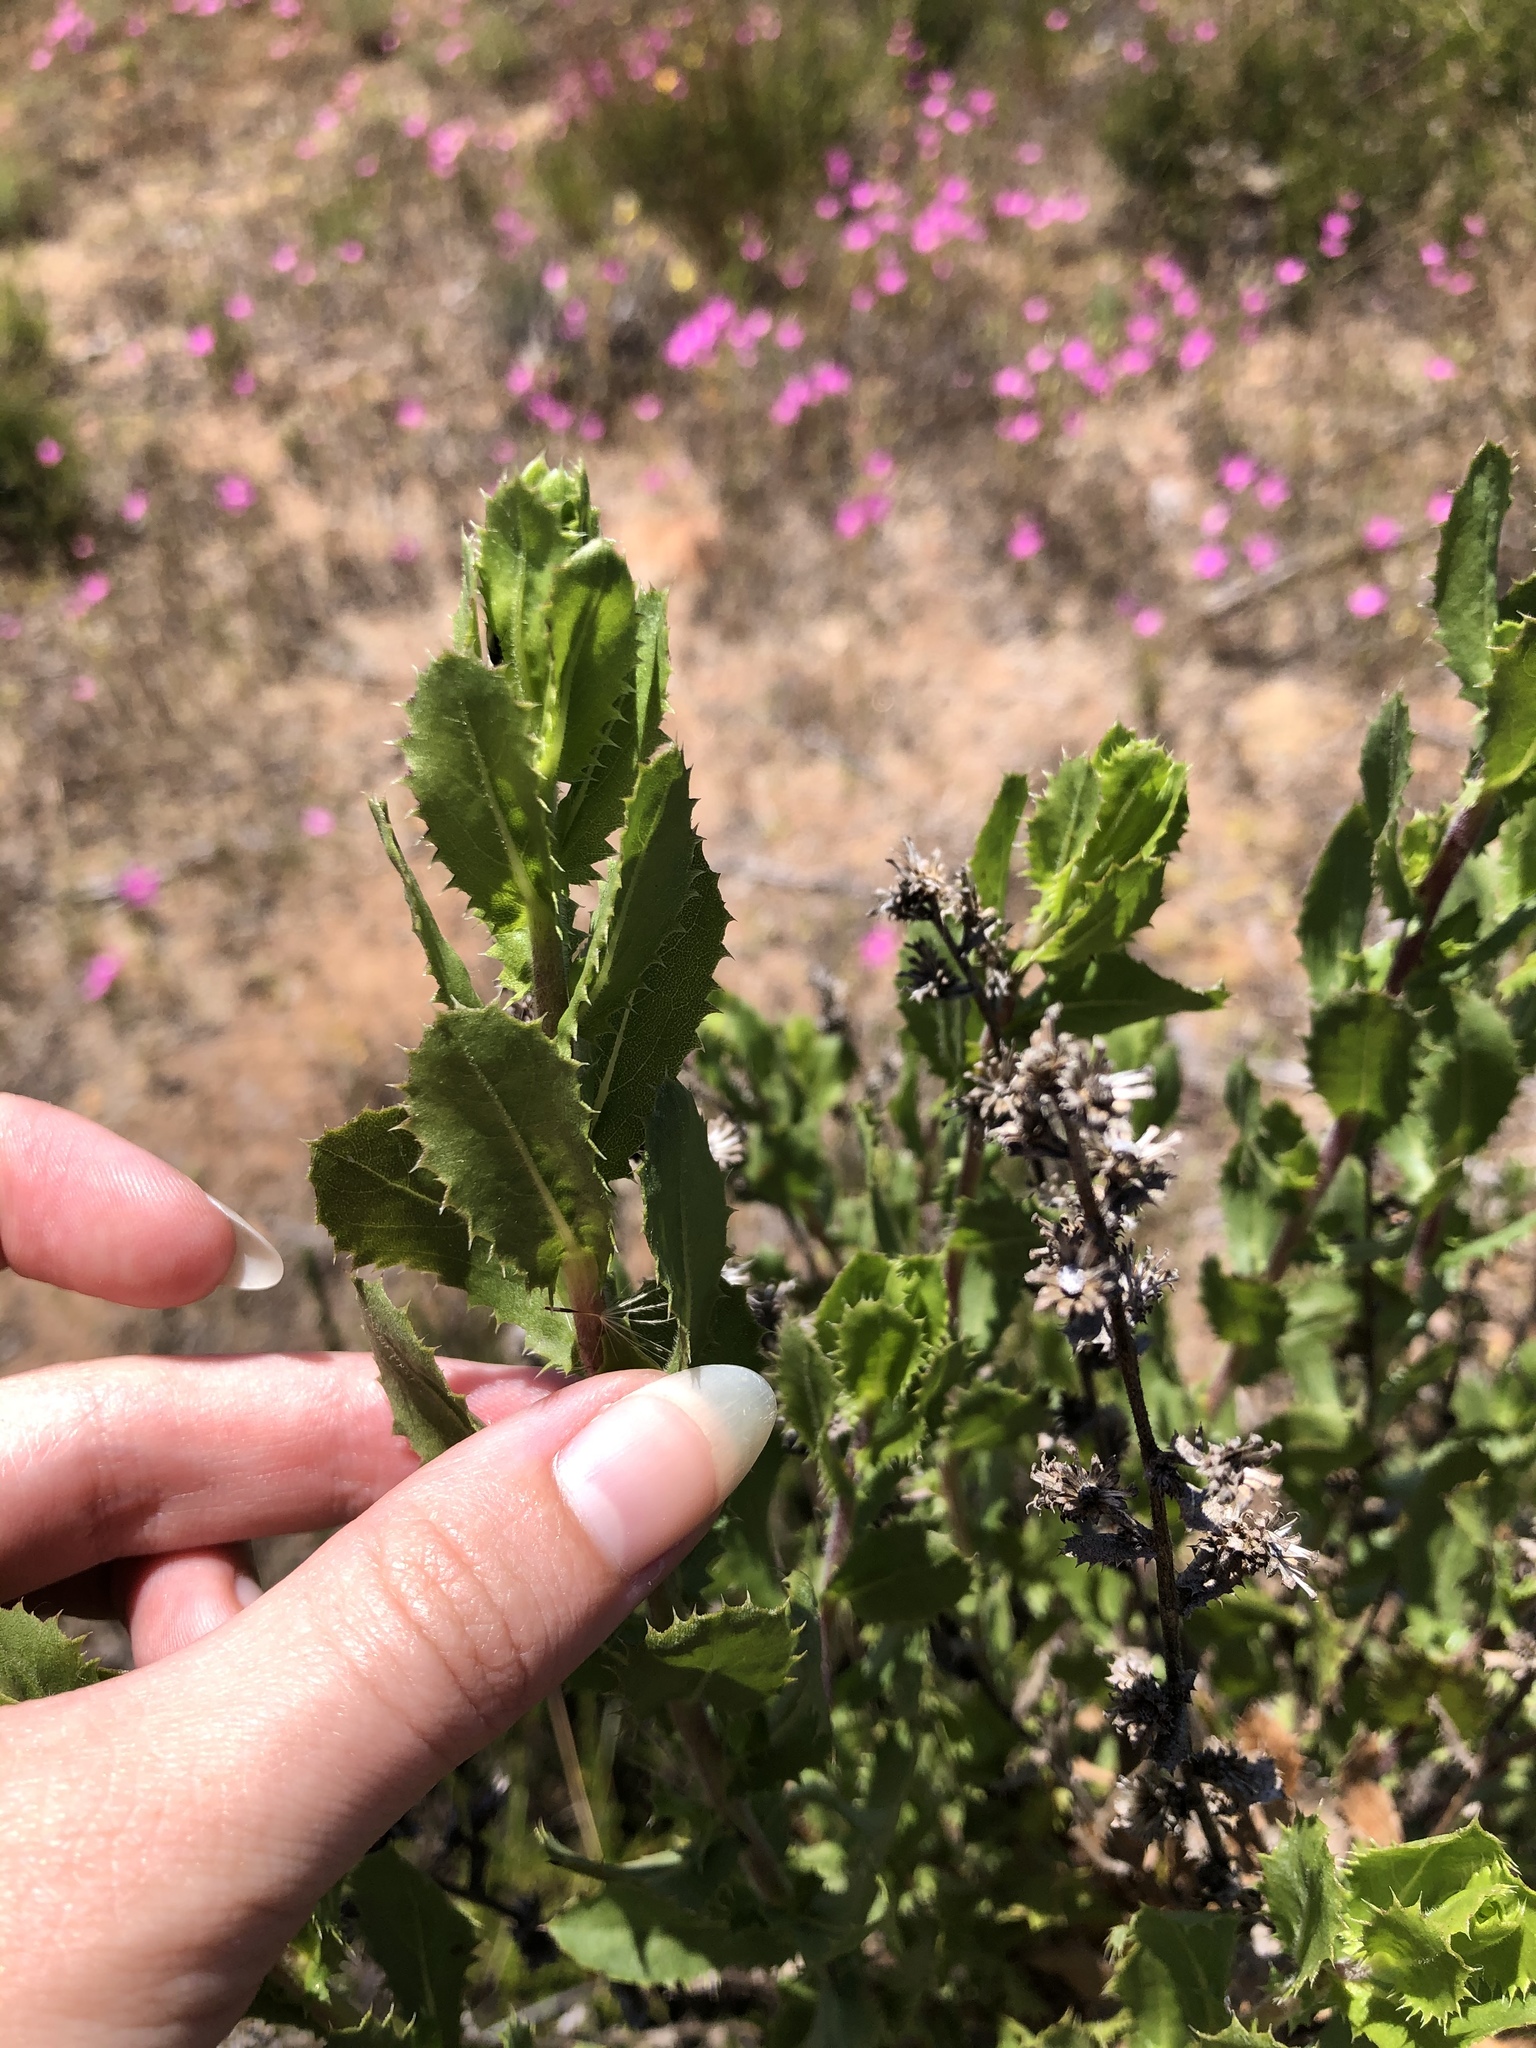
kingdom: Plantae
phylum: Tracheophyta
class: Magnoliopsida
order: Asterales
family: Asteraceae
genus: Hazardia
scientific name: Hazardia squarrosa
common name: Saw-tooth goldenbush
